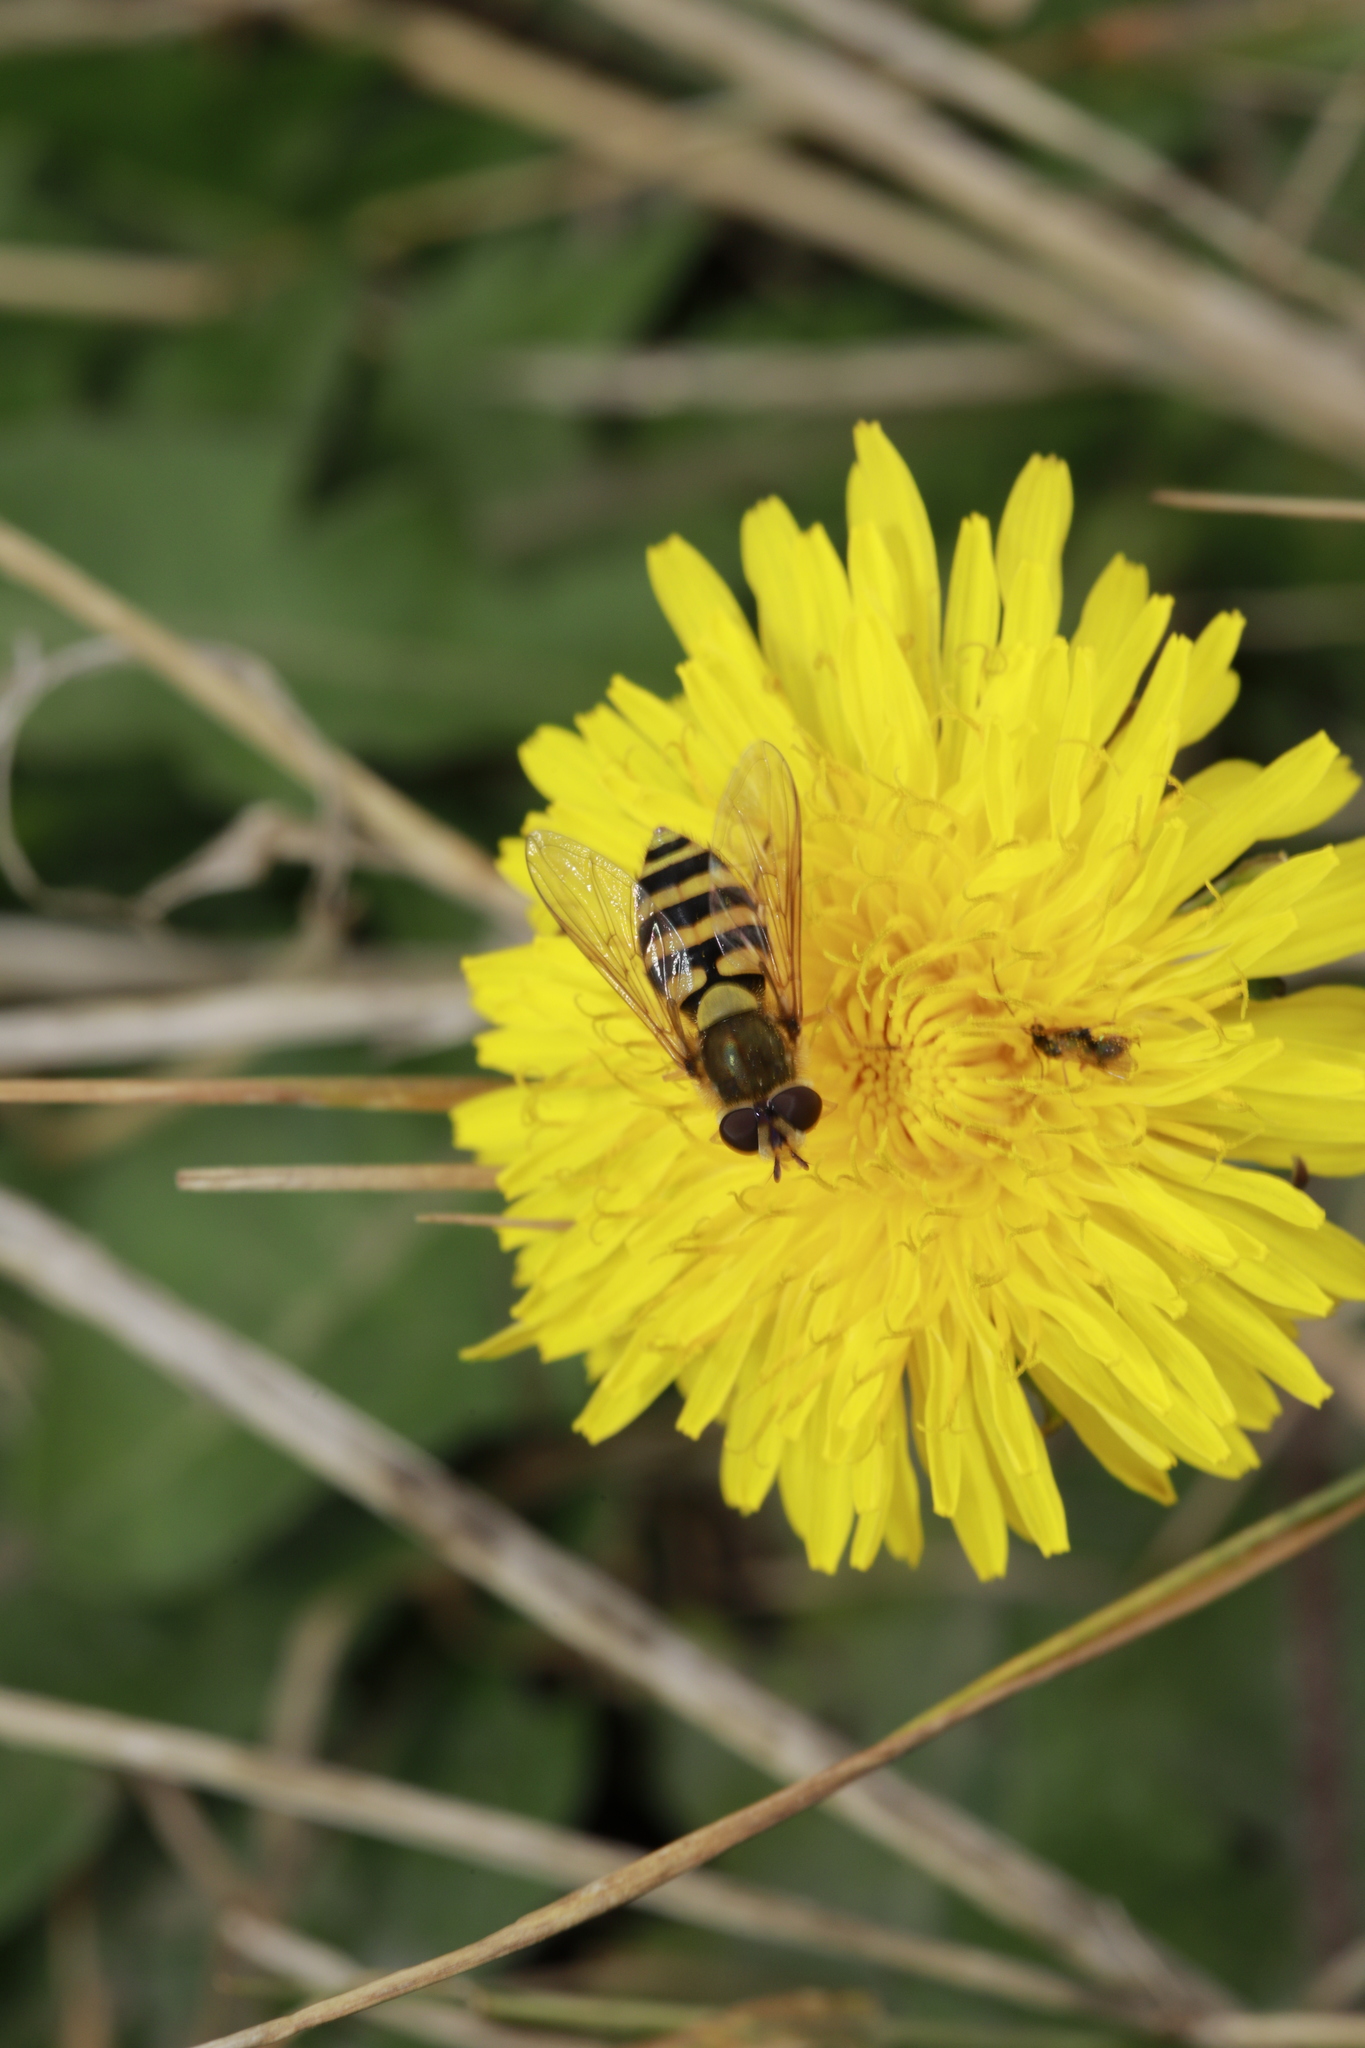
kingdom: Animalia
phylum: Arthropoda
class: Insecta
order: Diptera
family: Syrphidae
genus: Syrphus
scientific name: Syrphus
